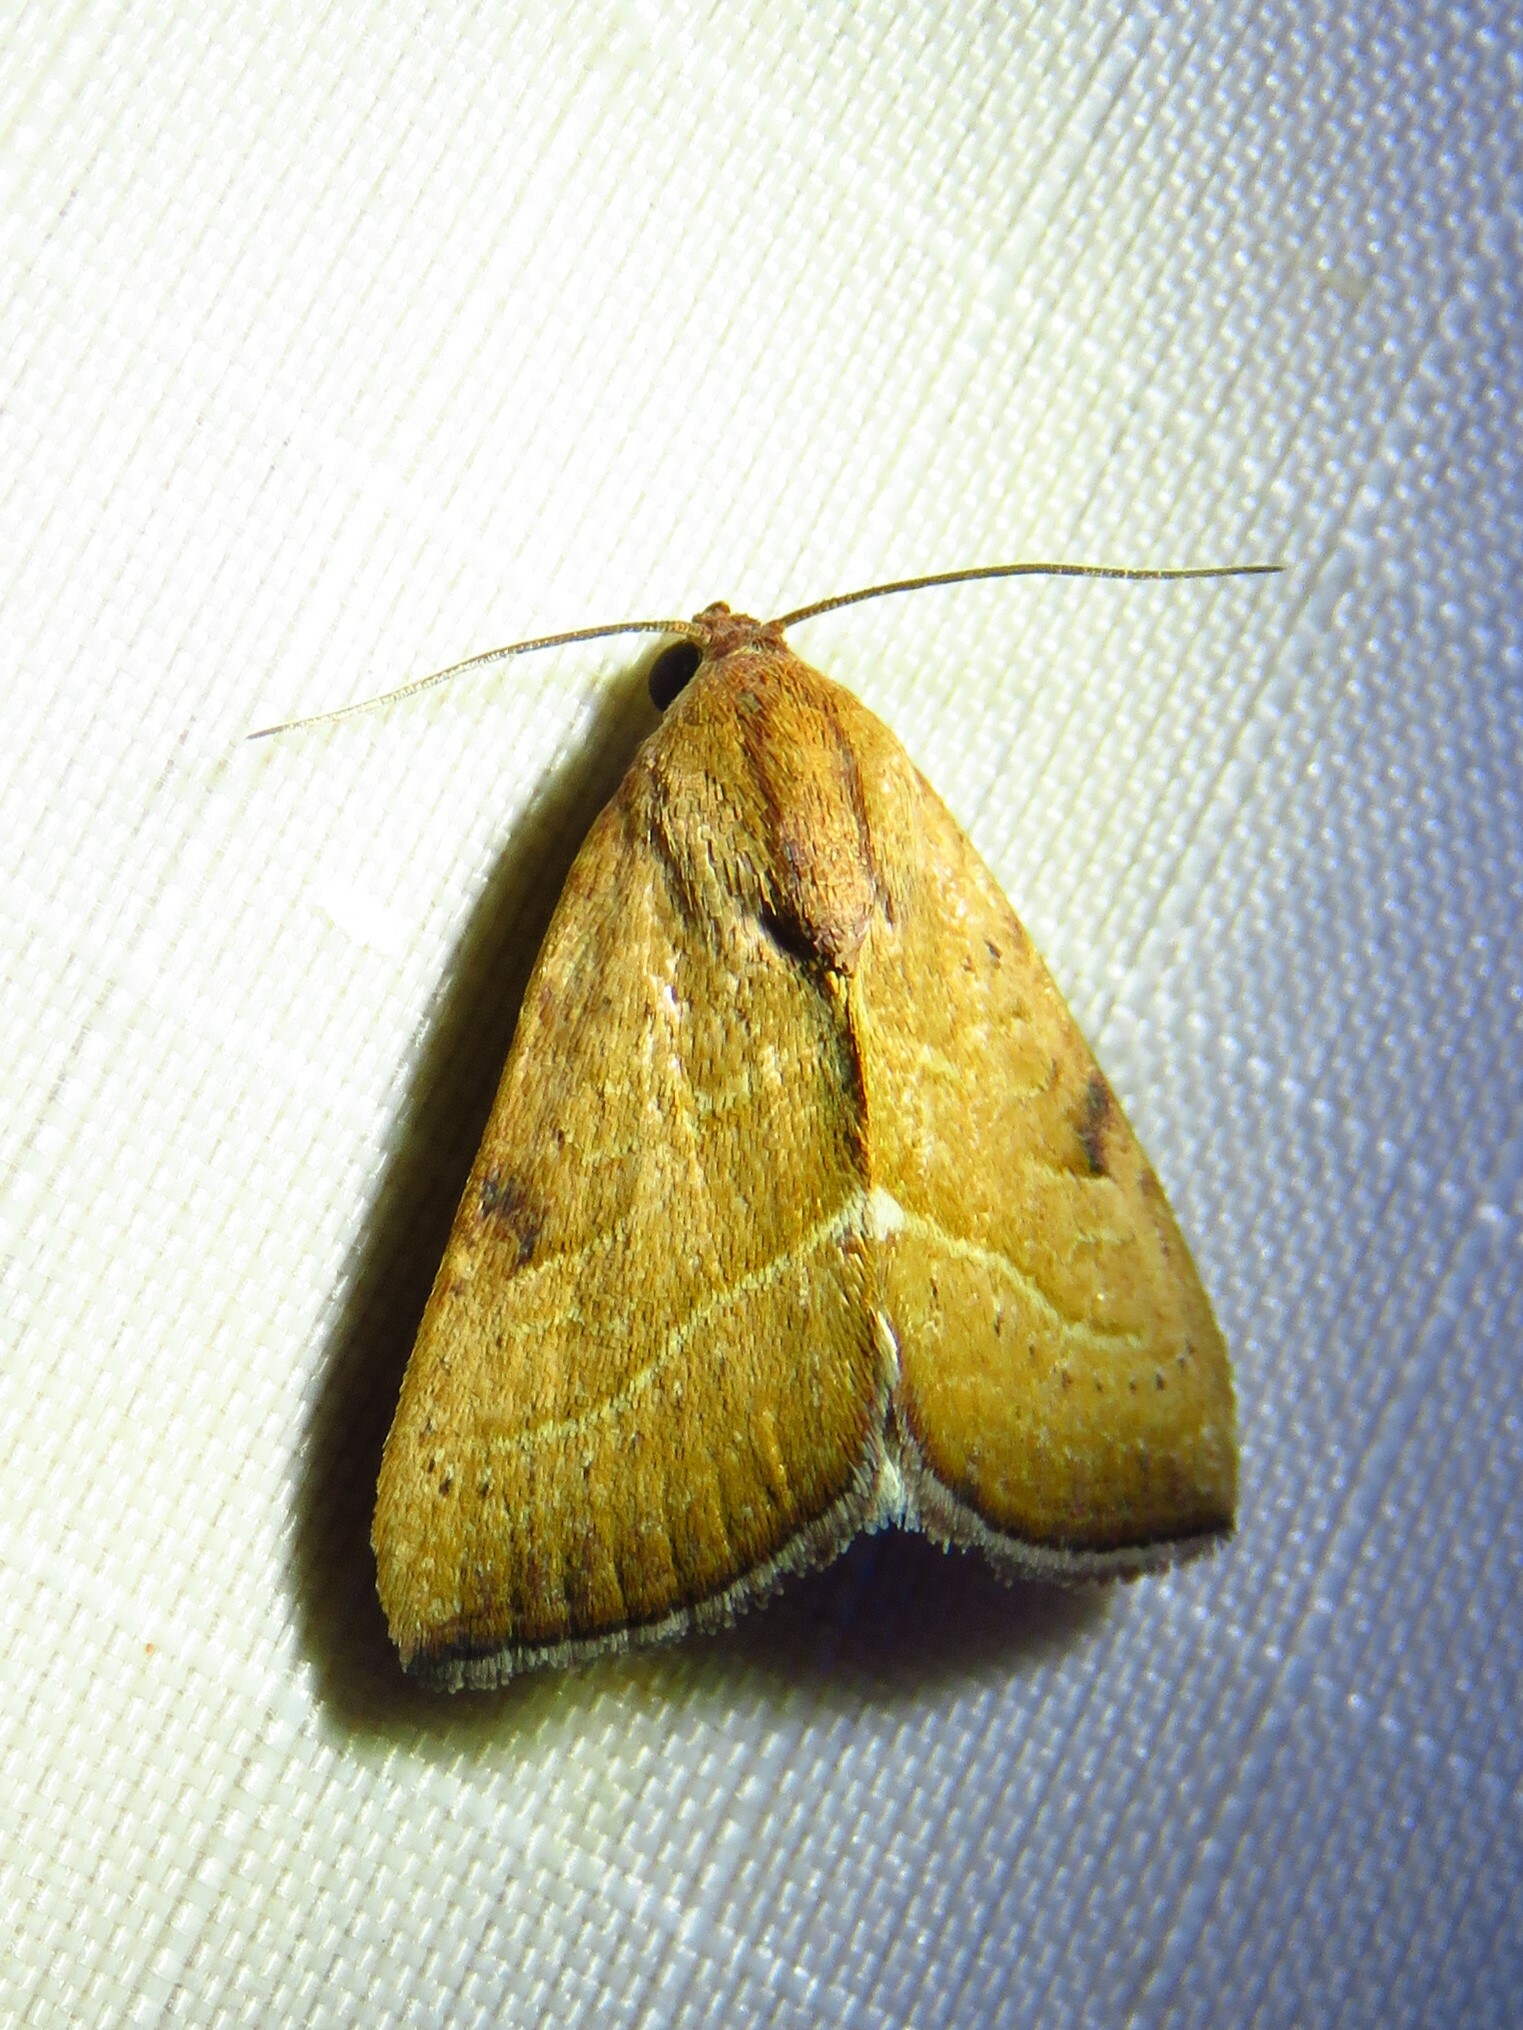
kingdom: Animalia
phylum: Arthropoda
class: Insecta
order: Lepidoptera
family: Noctuidae
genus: Galgula
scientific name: Galgula partita
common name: Wedgeling
